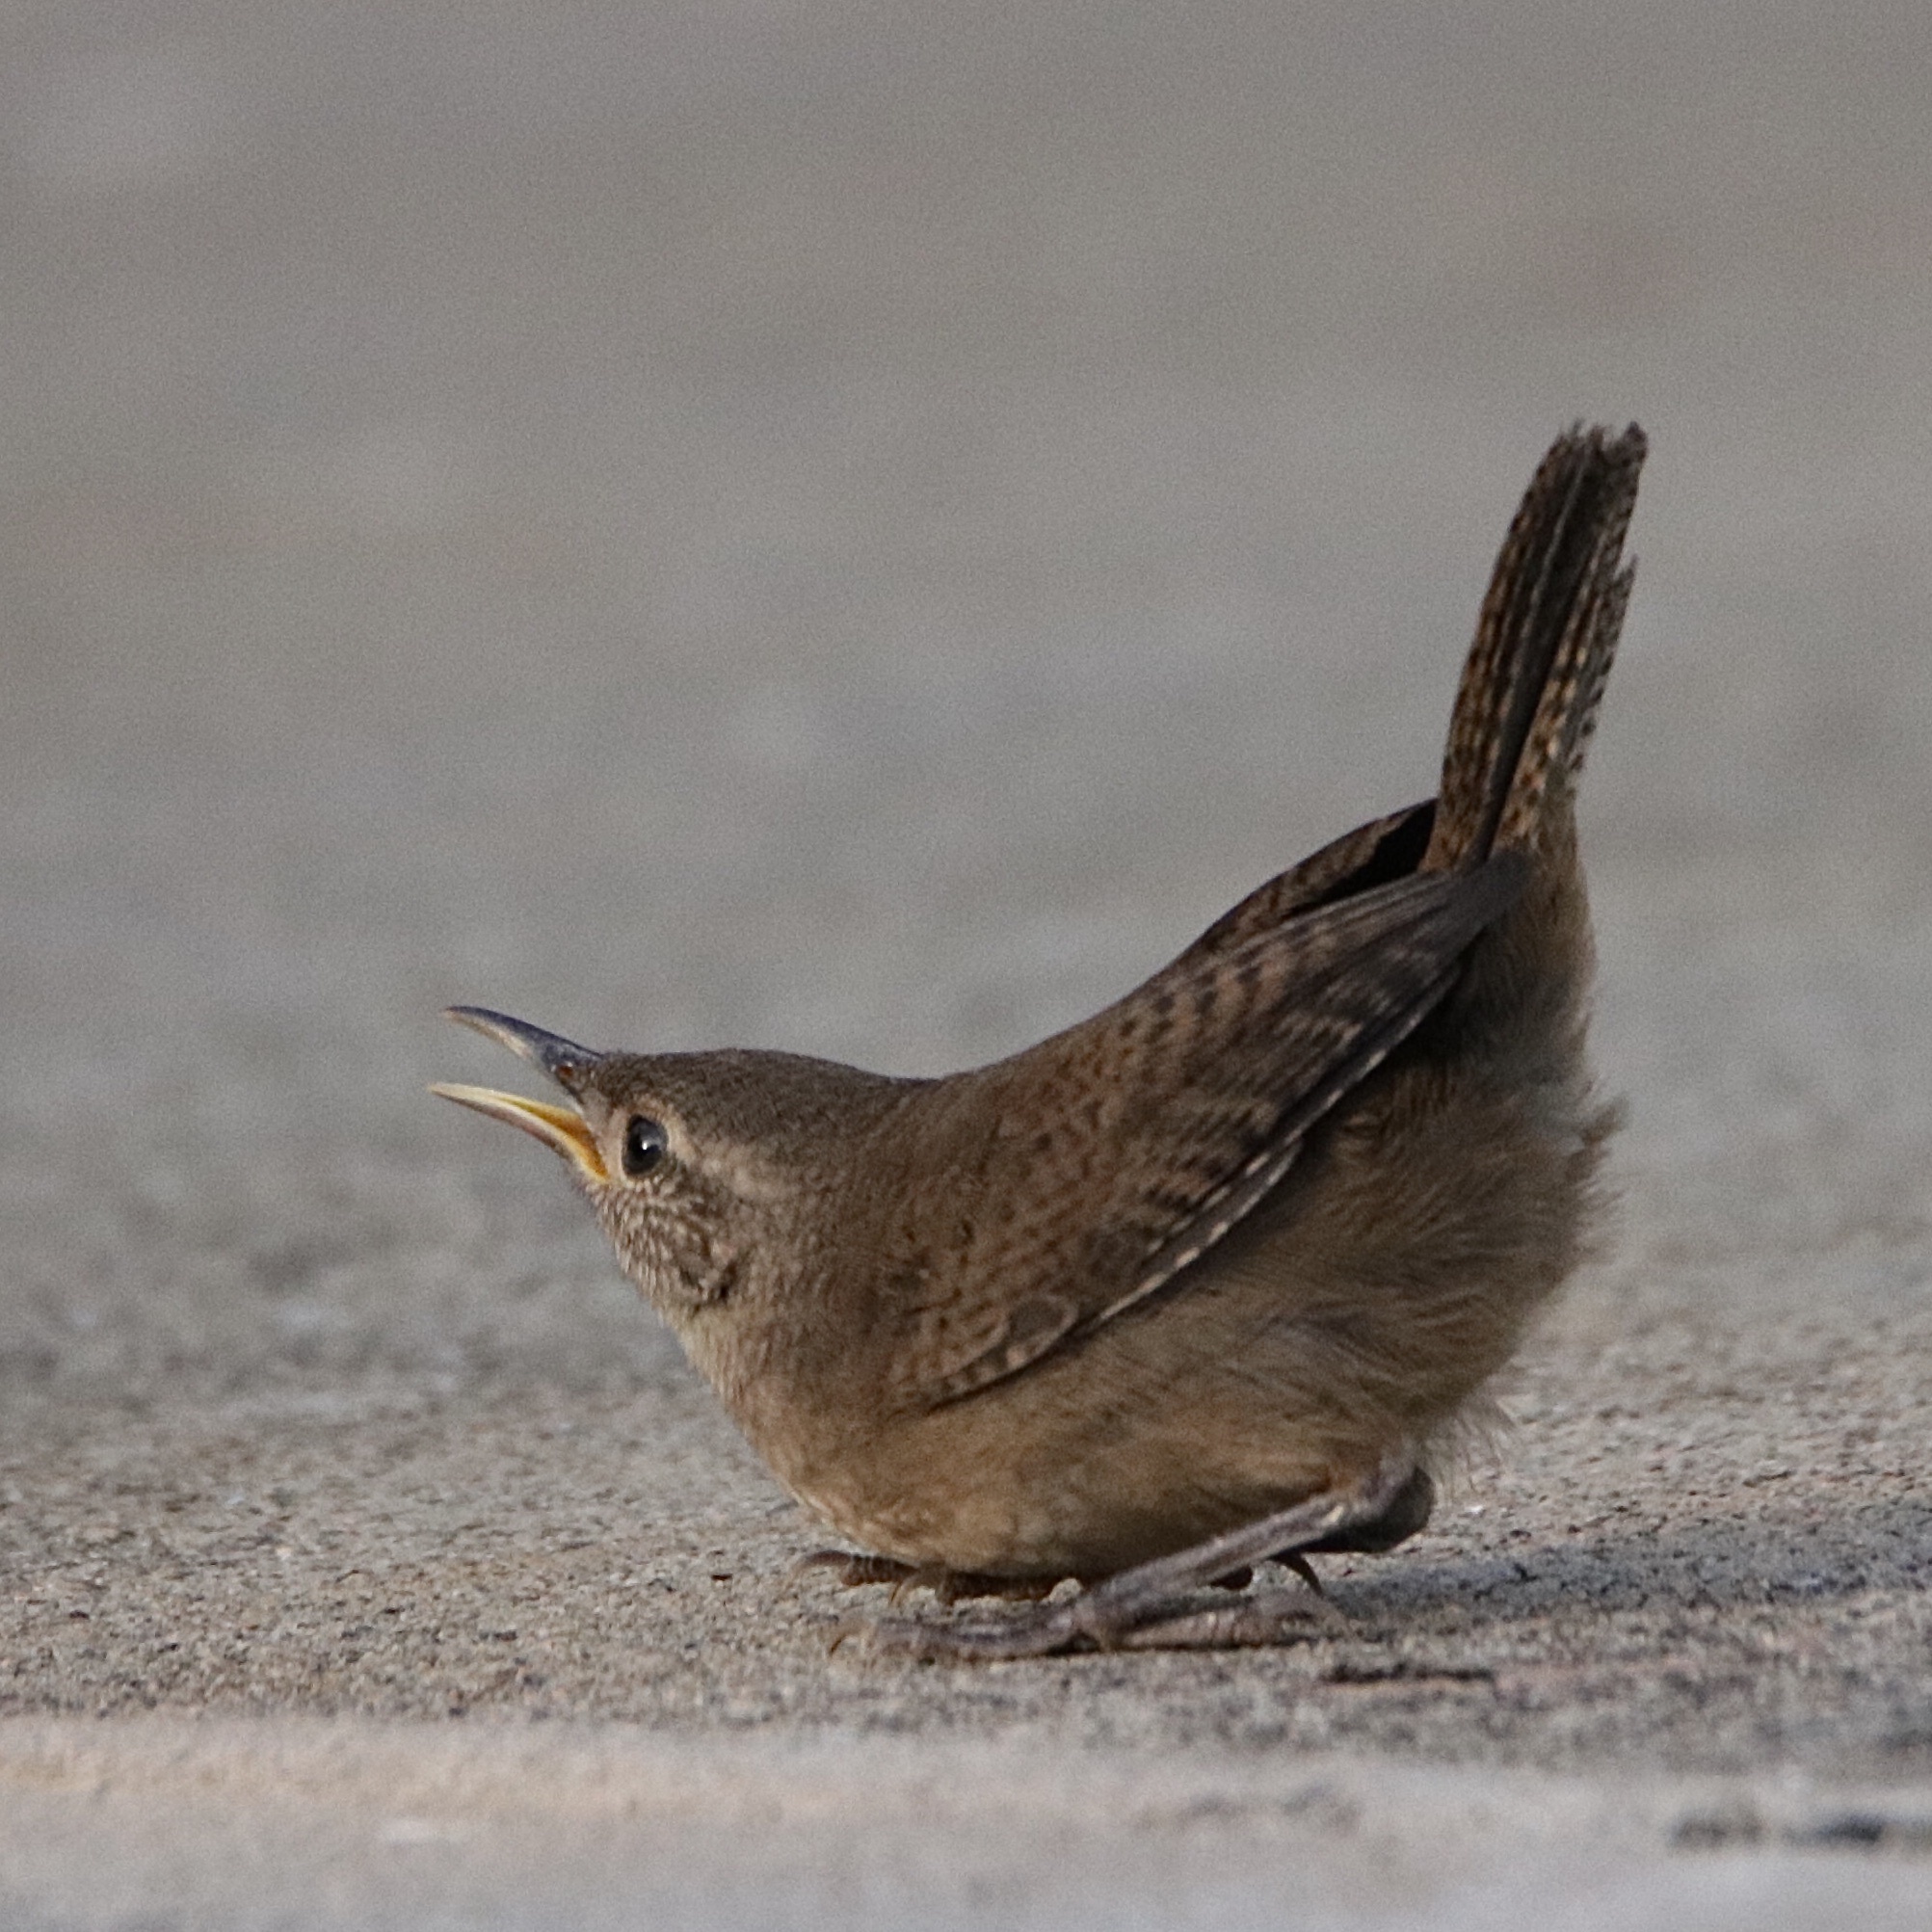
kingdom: Animalia
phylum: Chordata
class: Aves
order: Passeriformes
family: Troglodytidae
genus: Troglodytes
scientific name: Troglodytes aedon
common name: House wren
